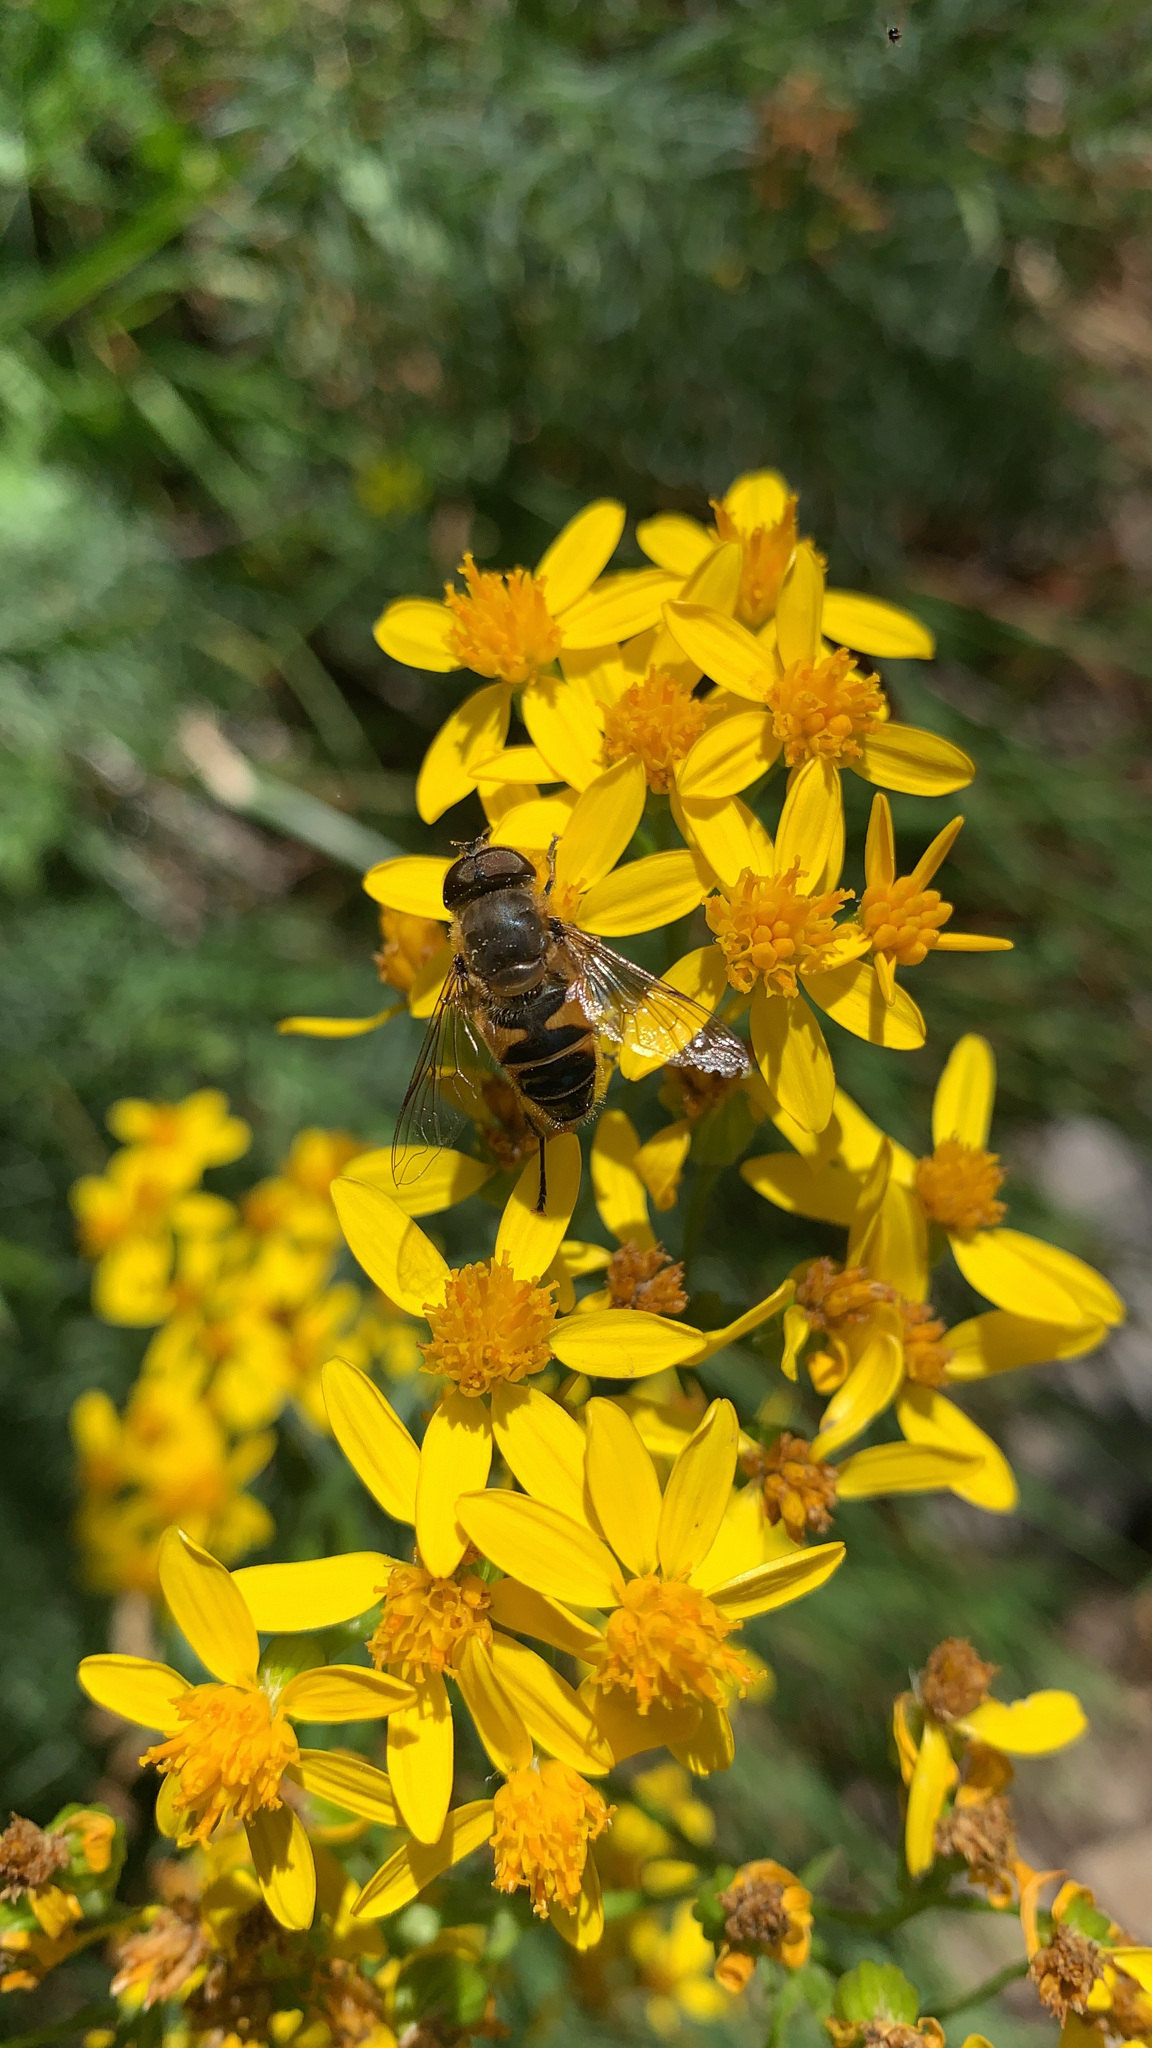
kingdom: Animalia
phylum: Arthropoda
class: Insecta
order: Diptera
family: Syrphidae
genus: Eristalis
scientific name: Eristalis pertinax
